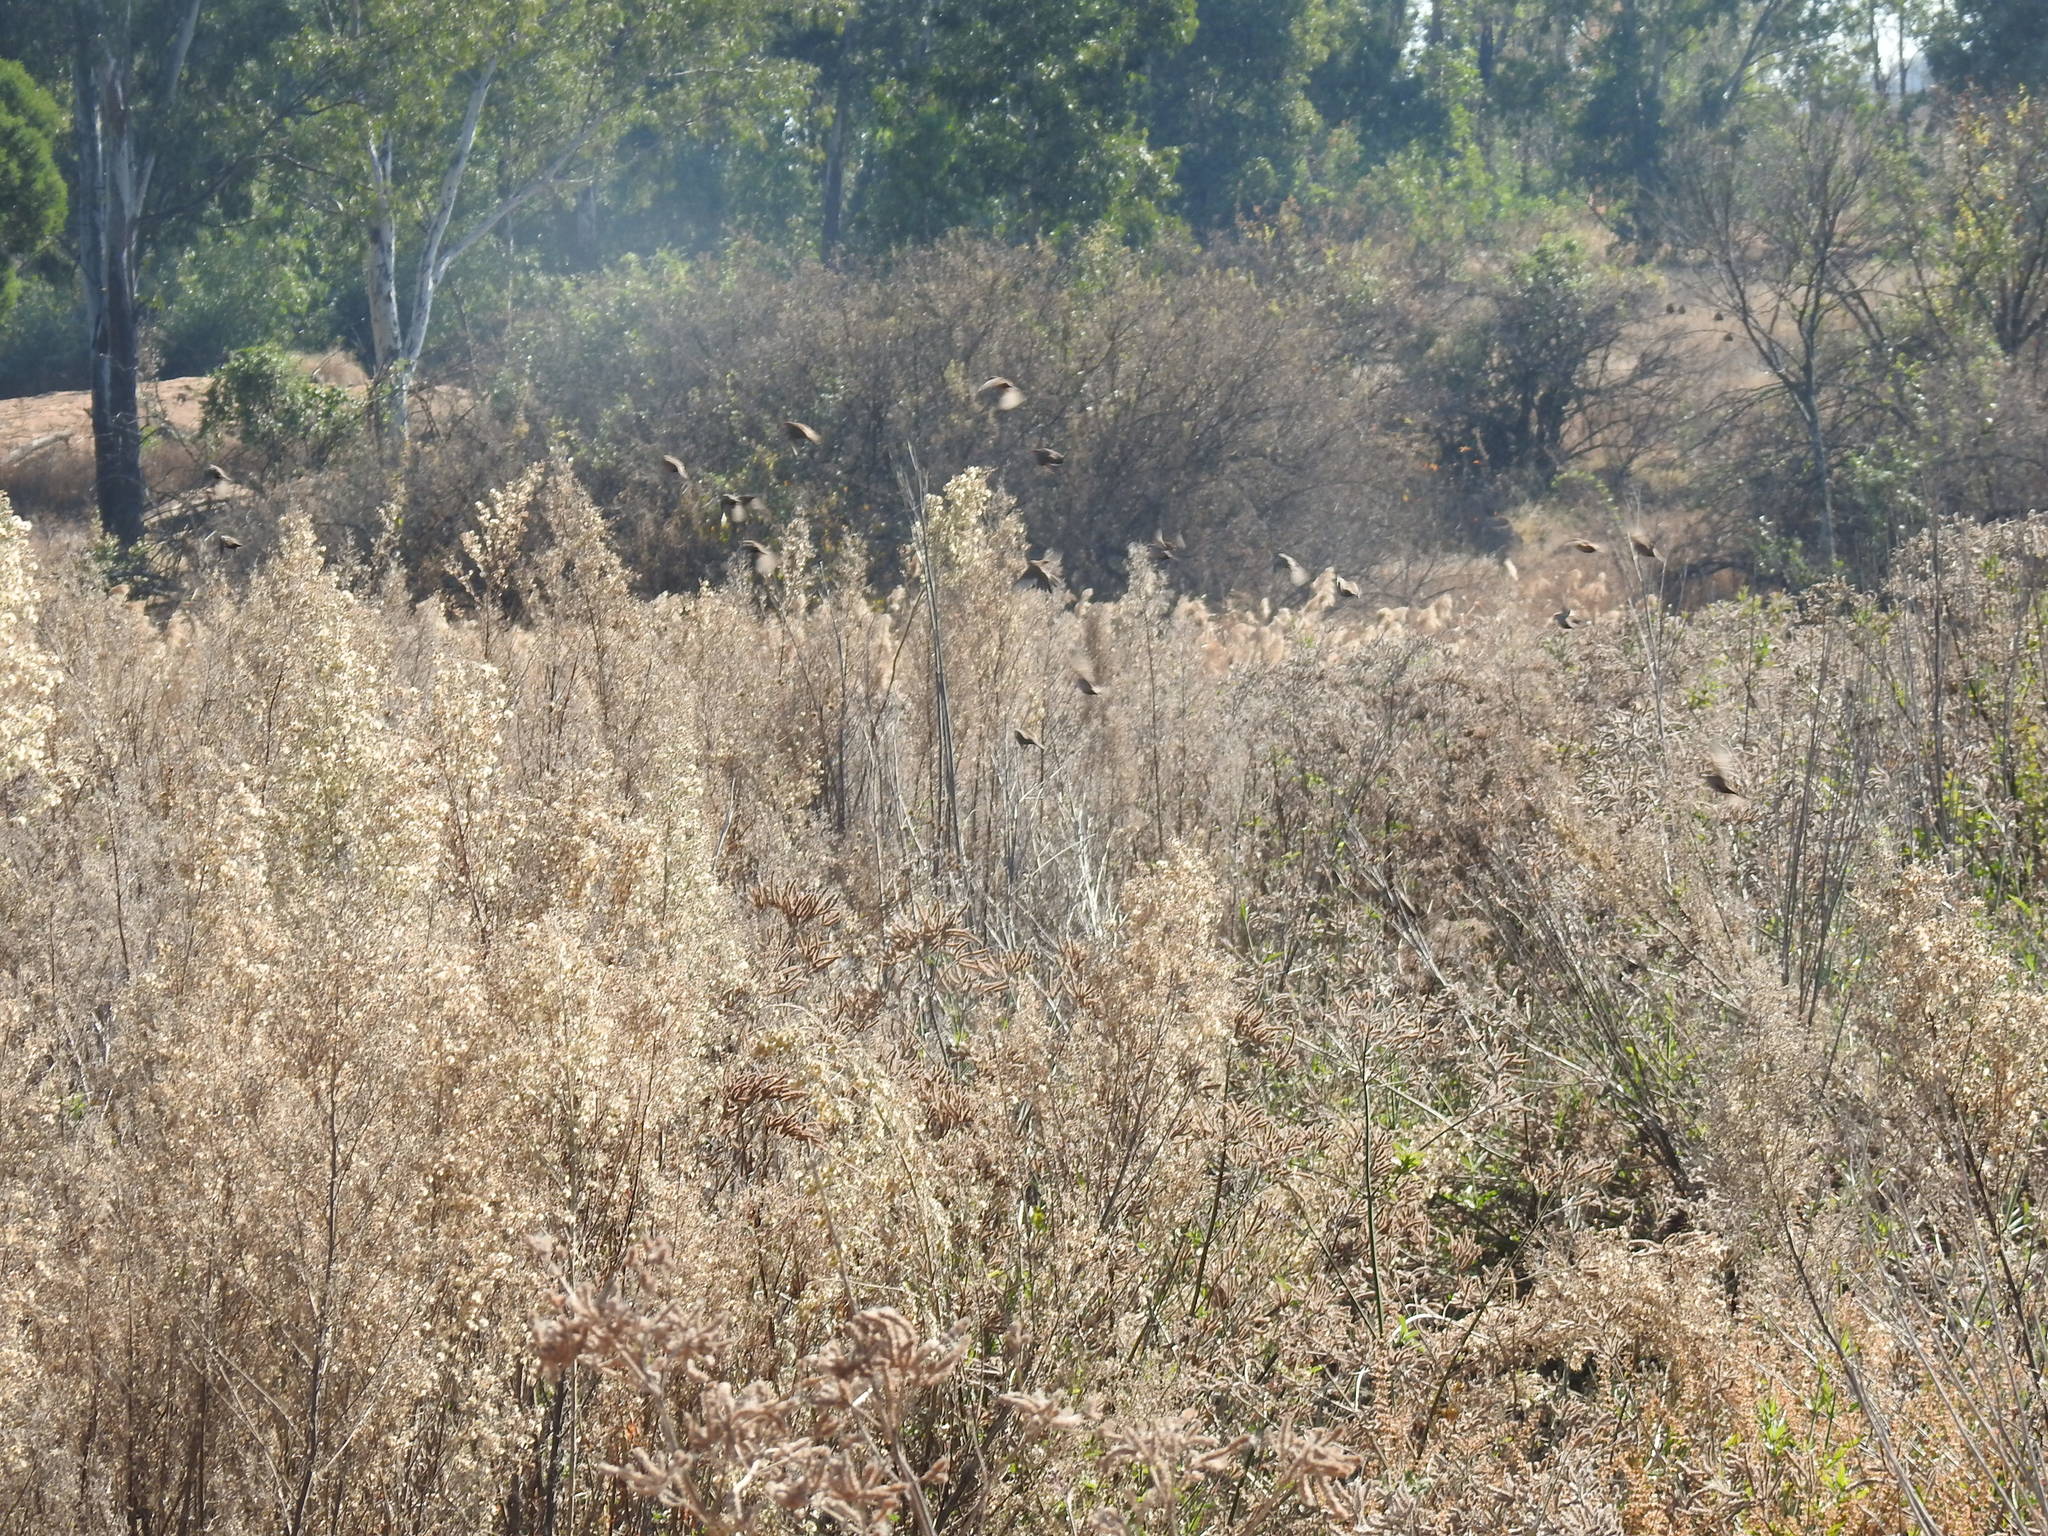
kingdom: Animalia
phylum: Chordata
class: Aves
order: Passeriformes
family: Estrildidae
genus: Estrilda
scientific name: Estrilda astrild
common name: Common waxbill
